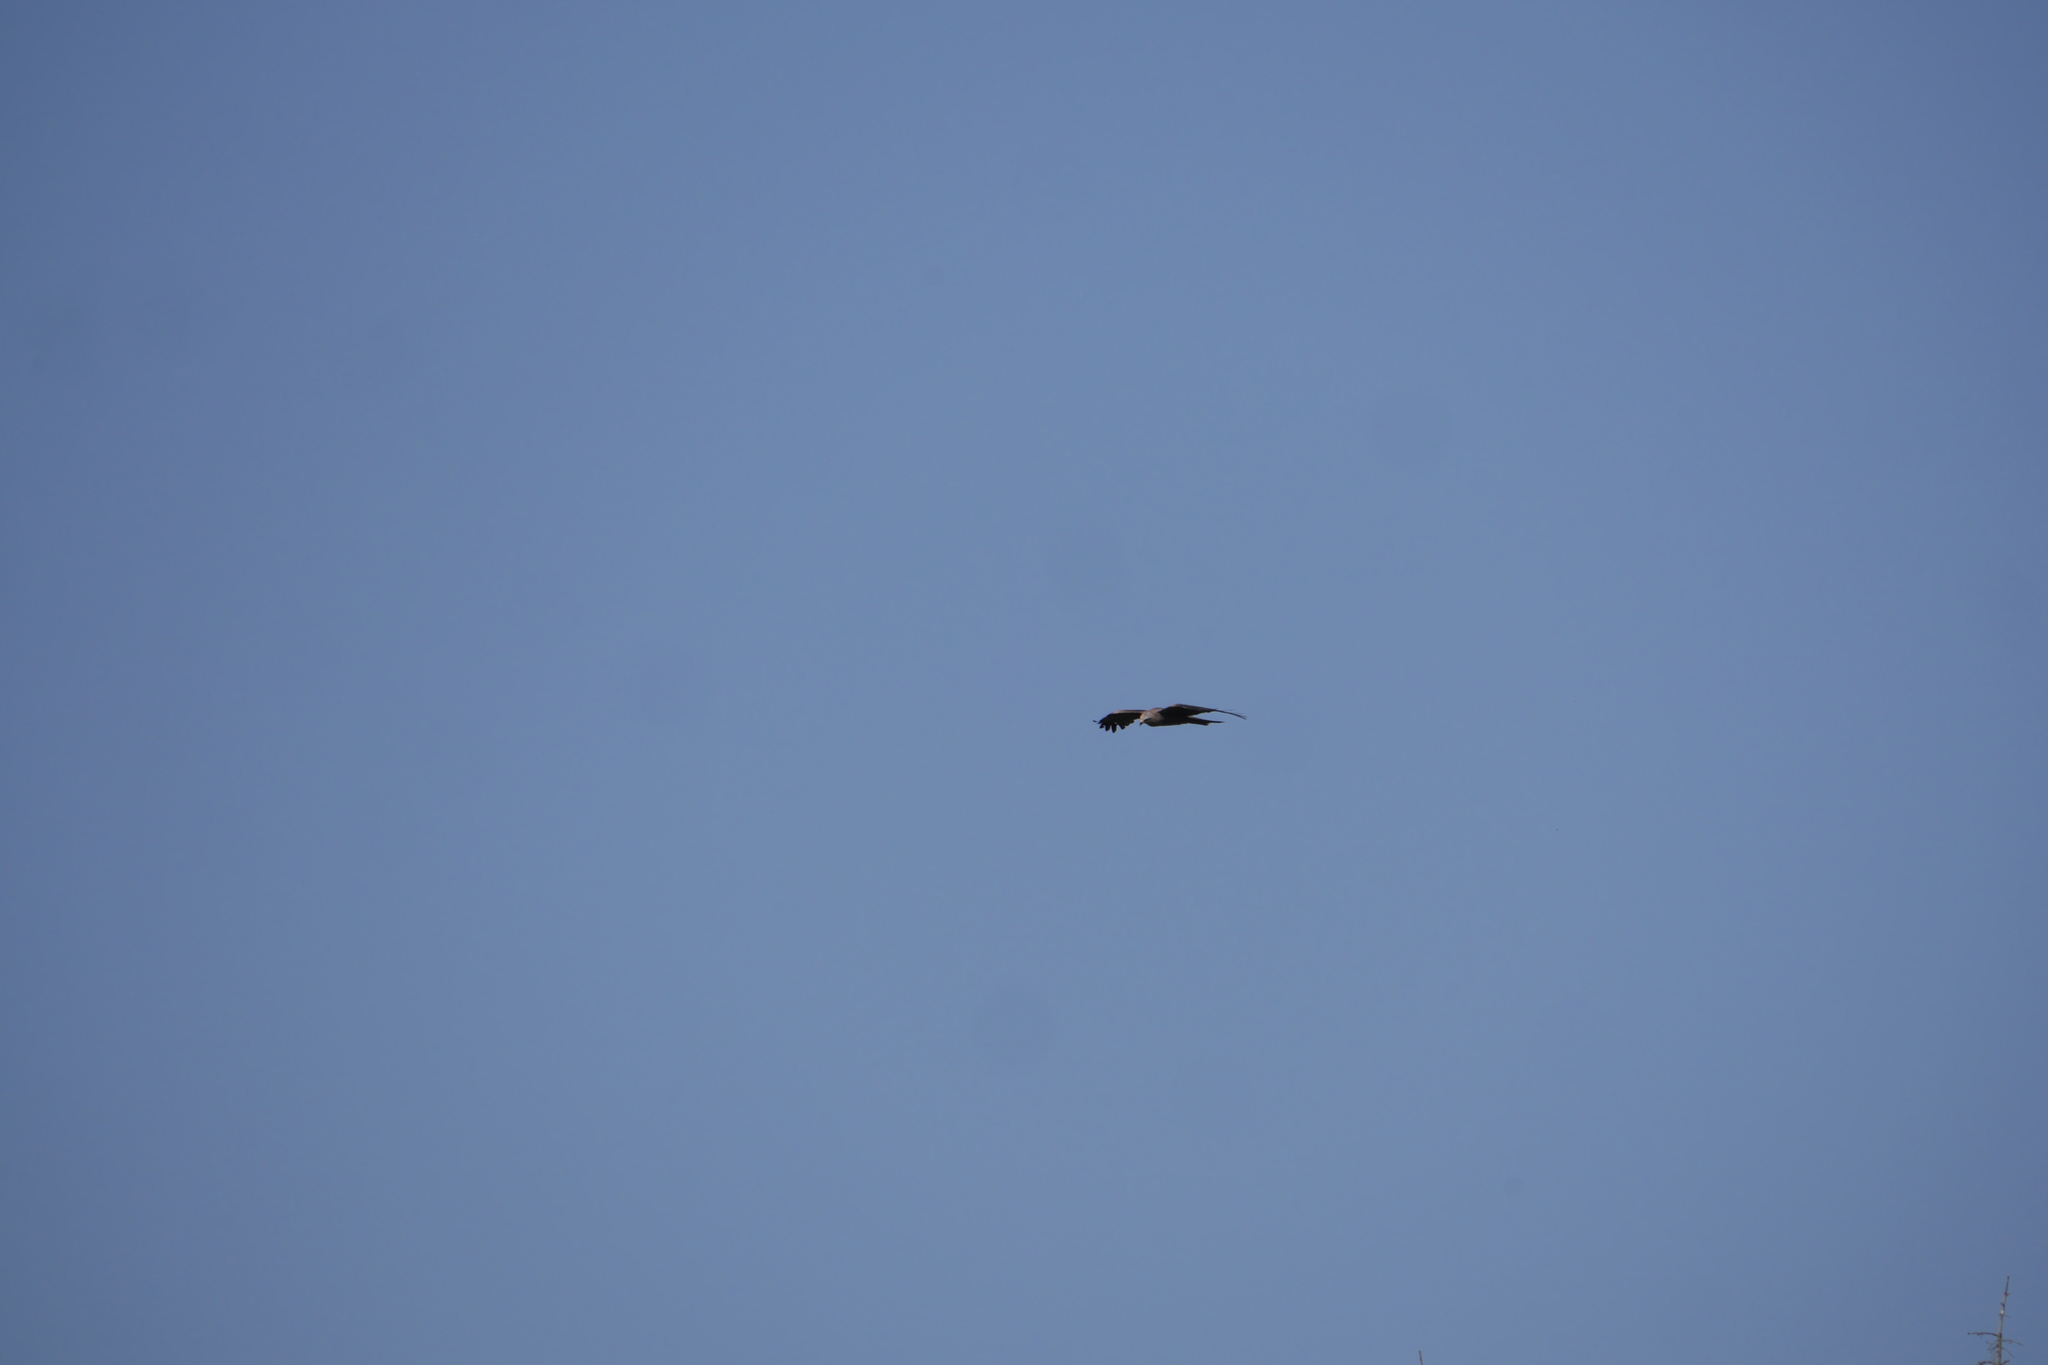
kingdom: Animalia
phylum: Chordata
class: Aves
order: Accipitriformes
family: Accipitridae
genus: Milvus
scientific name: Milvus migrans
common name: Black kite
